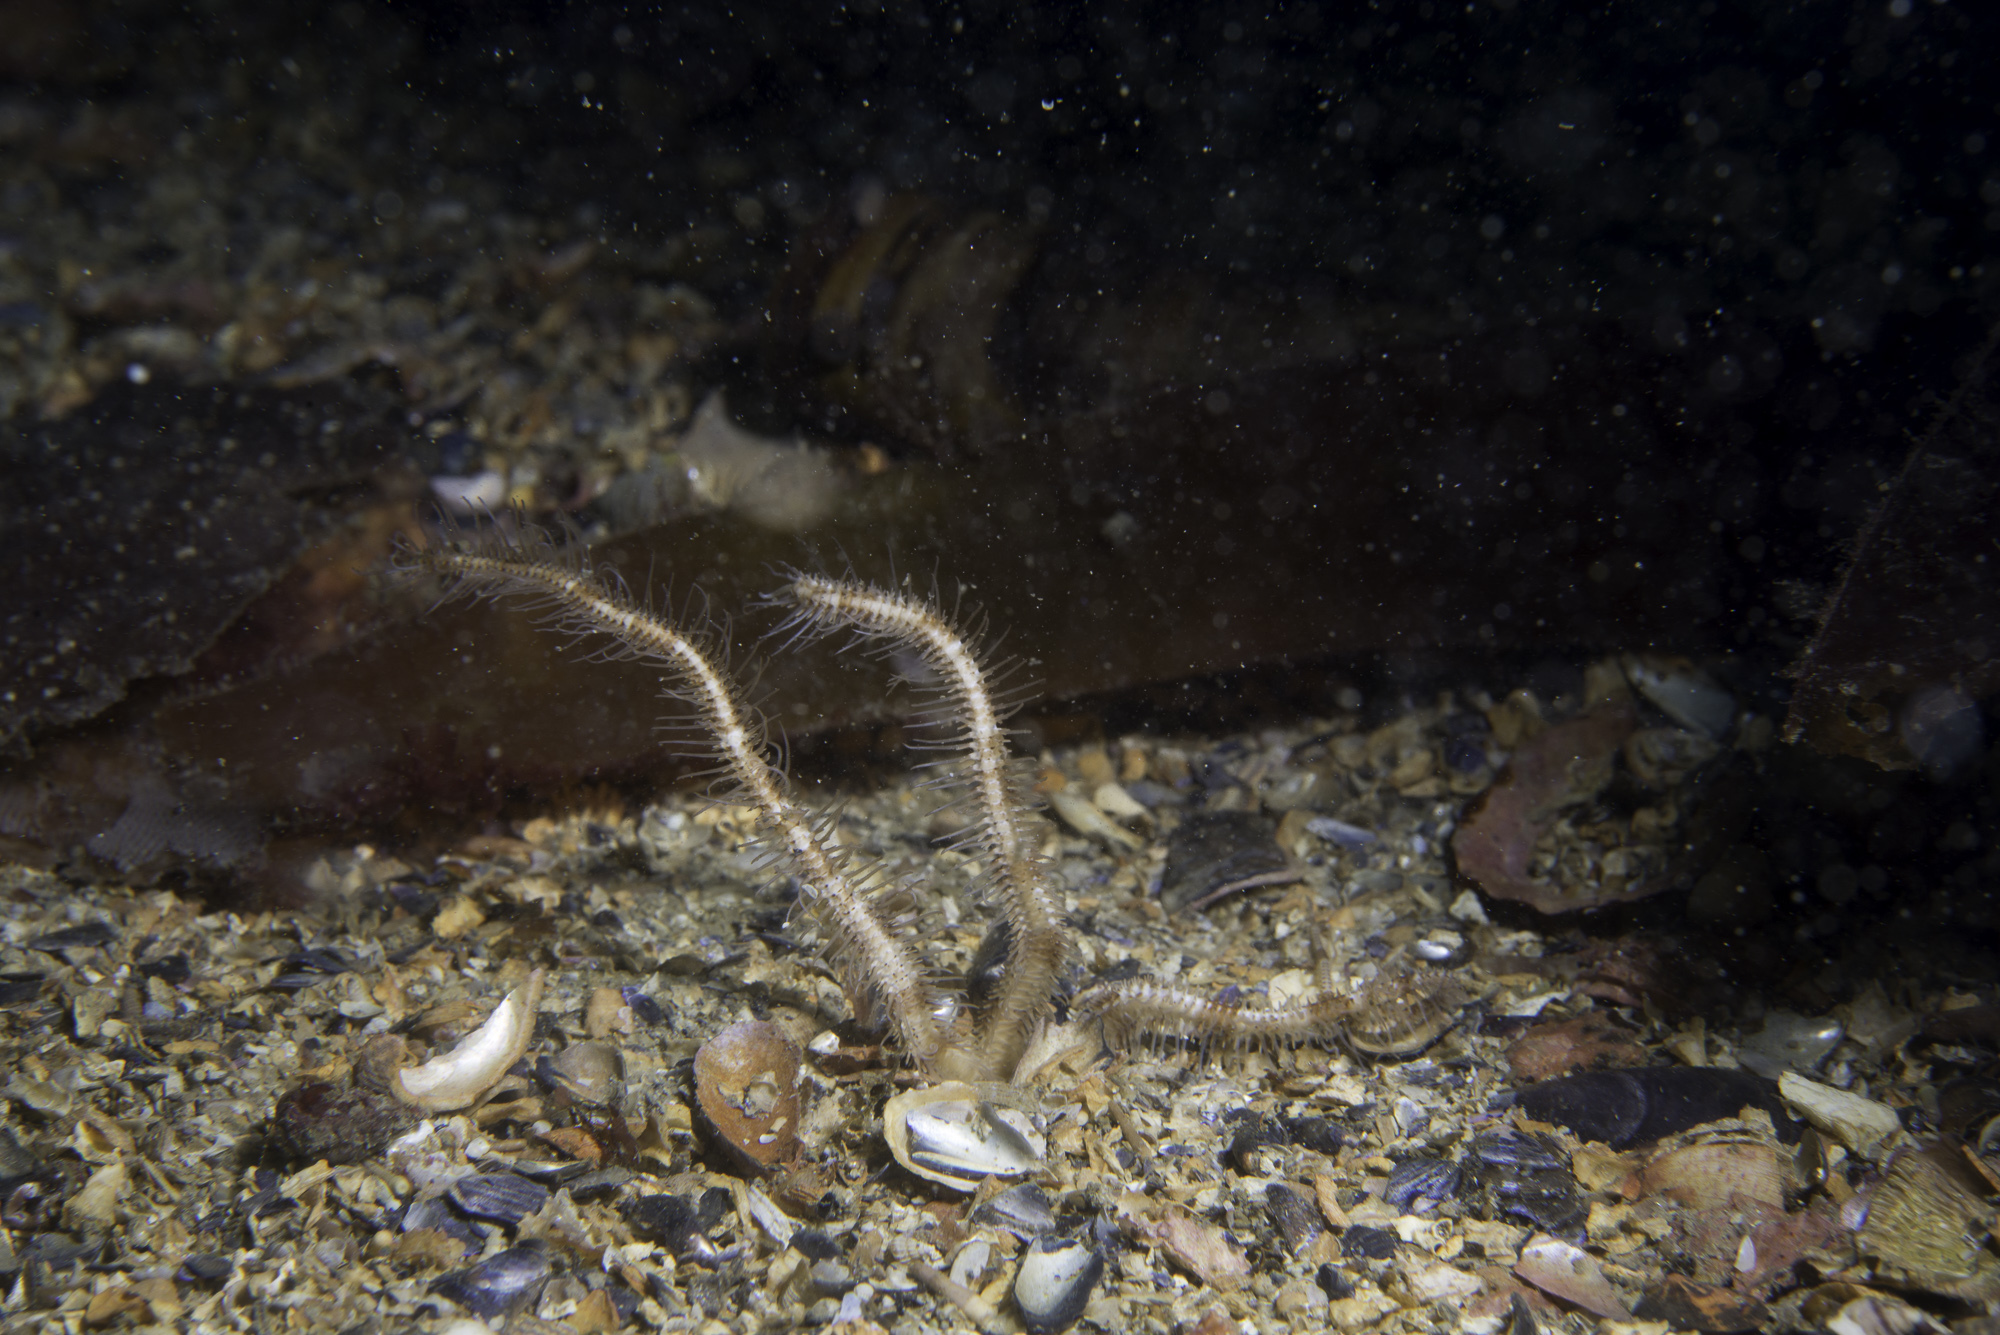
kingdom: Animalia
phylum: Echinodermata
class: Ophiuroidea
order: Amphilepidida
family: Ophiopsilidae
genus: Ophiopsila
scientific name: Ophiopsila annulosa
